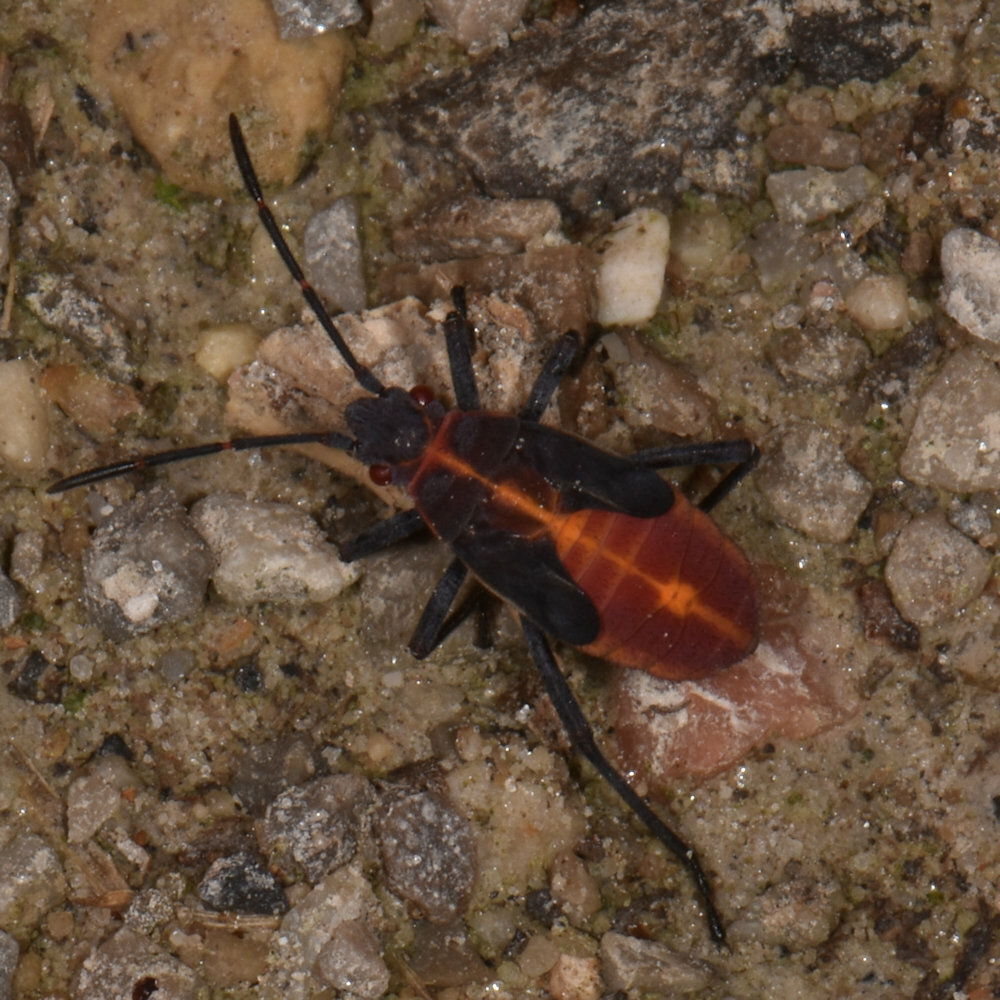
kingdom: Animalia
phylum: Arthropoda
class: Insecta
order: Hemiptera
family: Rhopalidae
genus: Boisea
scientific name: Boisea trivittata
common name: Boxelder bug
